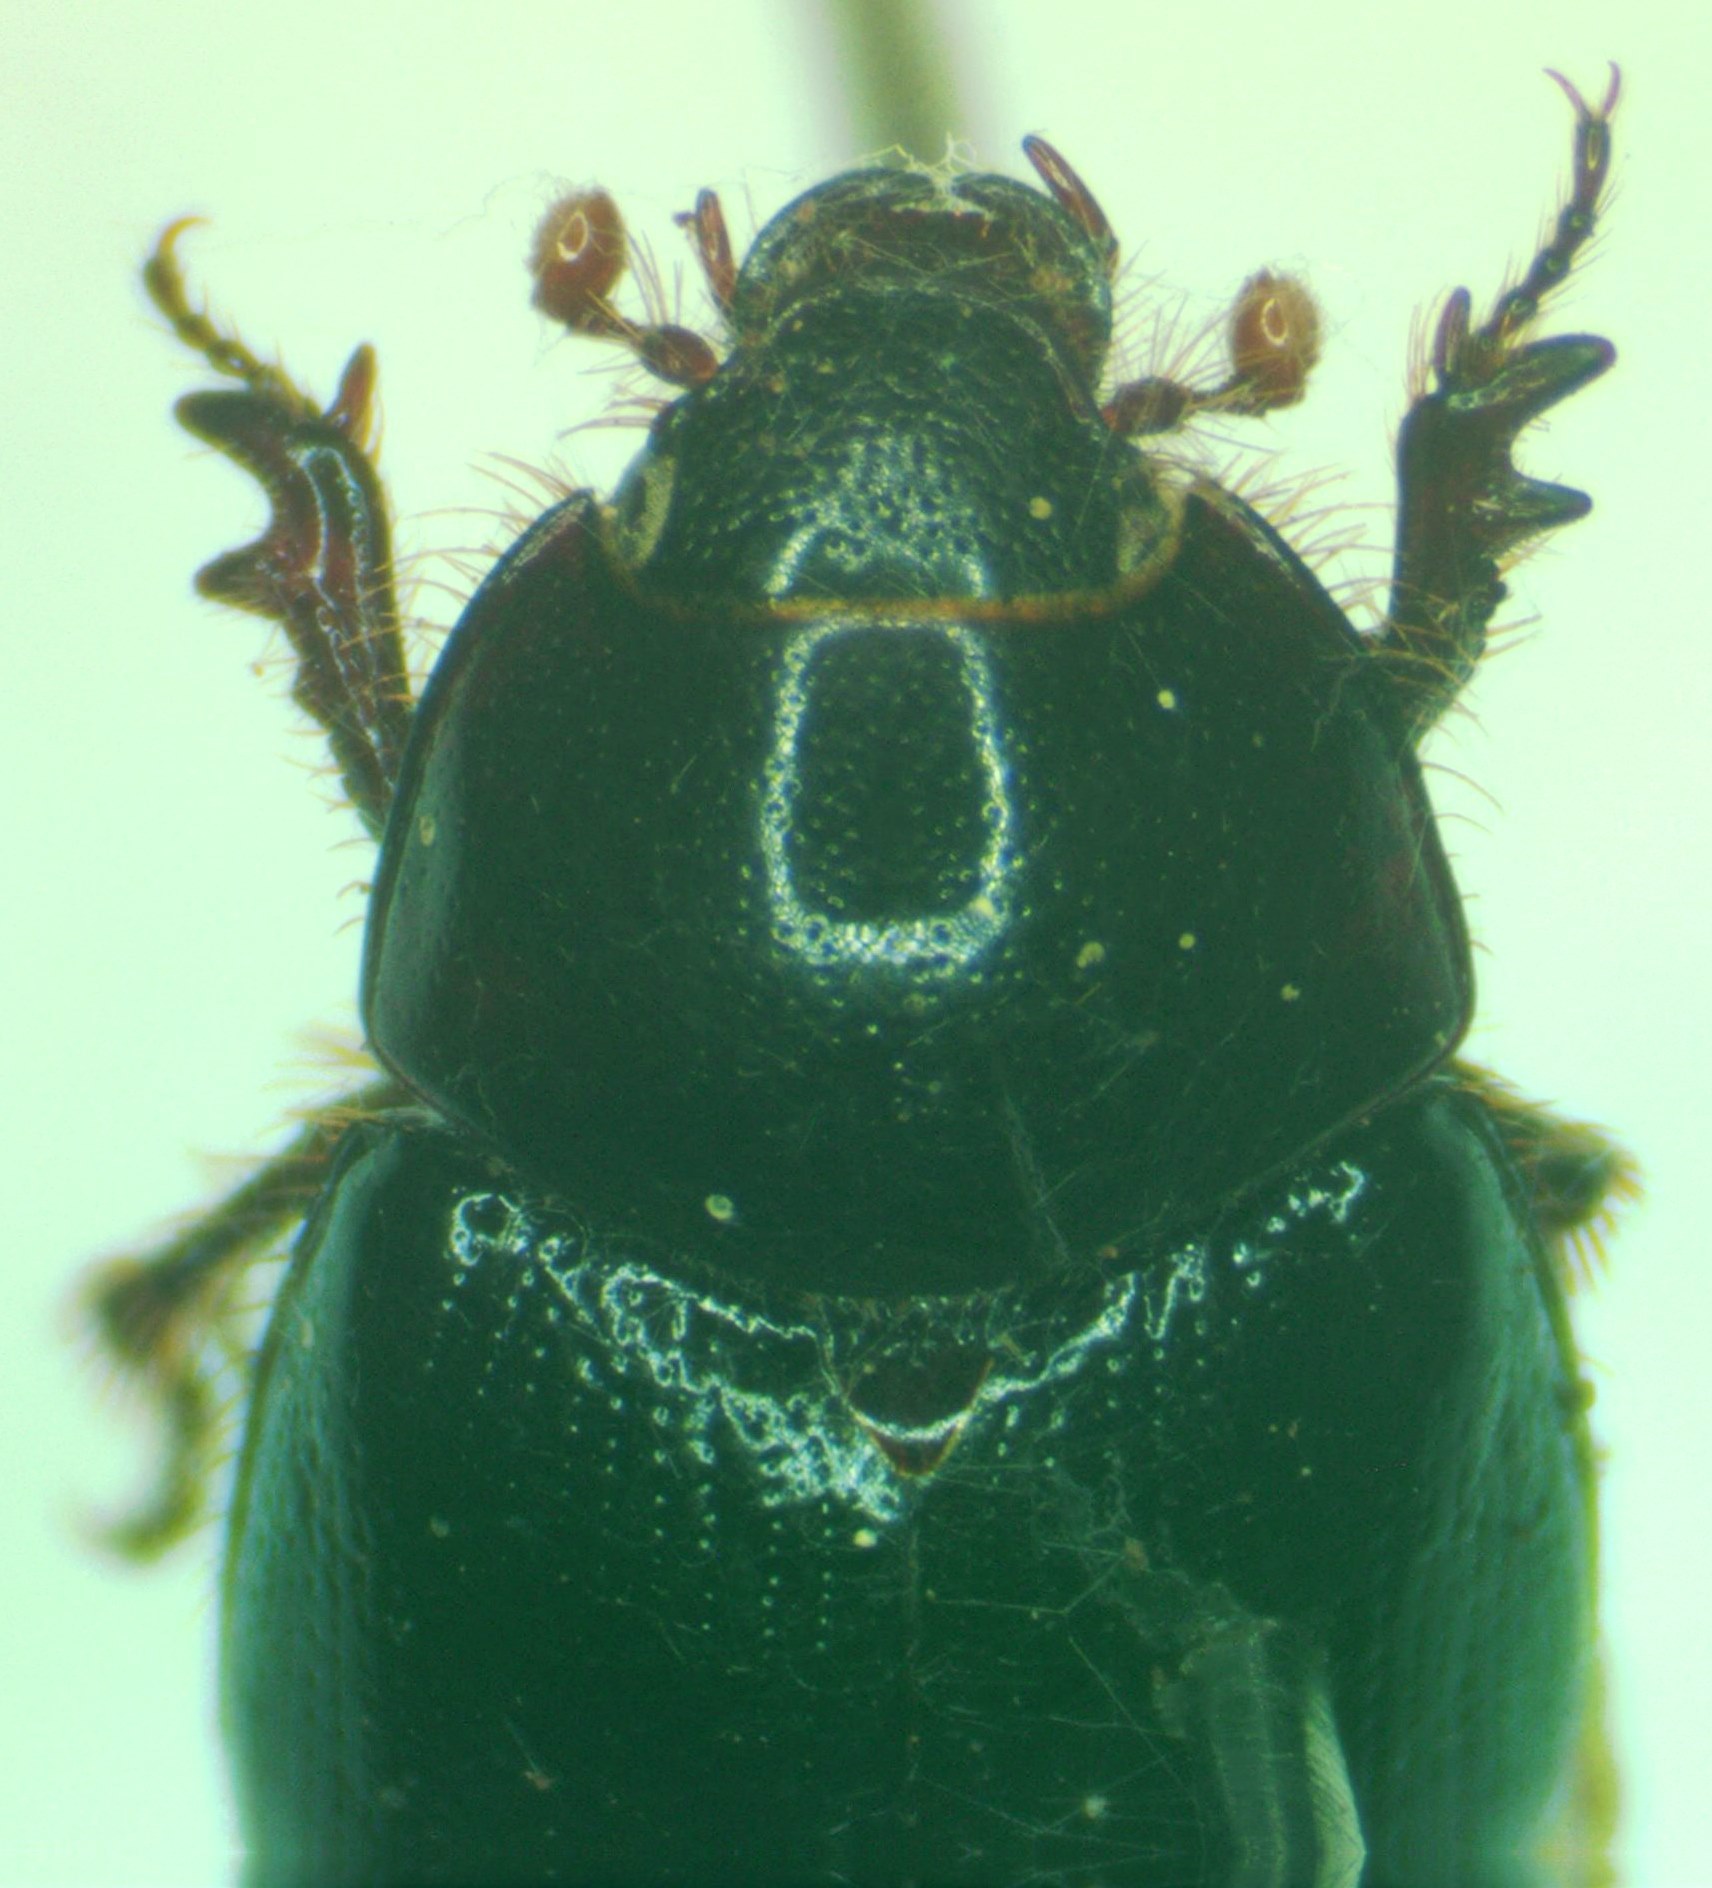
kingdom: Animalia
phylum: Arthropoda
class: Insecta
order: Coleoptera
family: Hybosoridae
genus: Hybosorus
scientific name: Hybosorus illigeri
